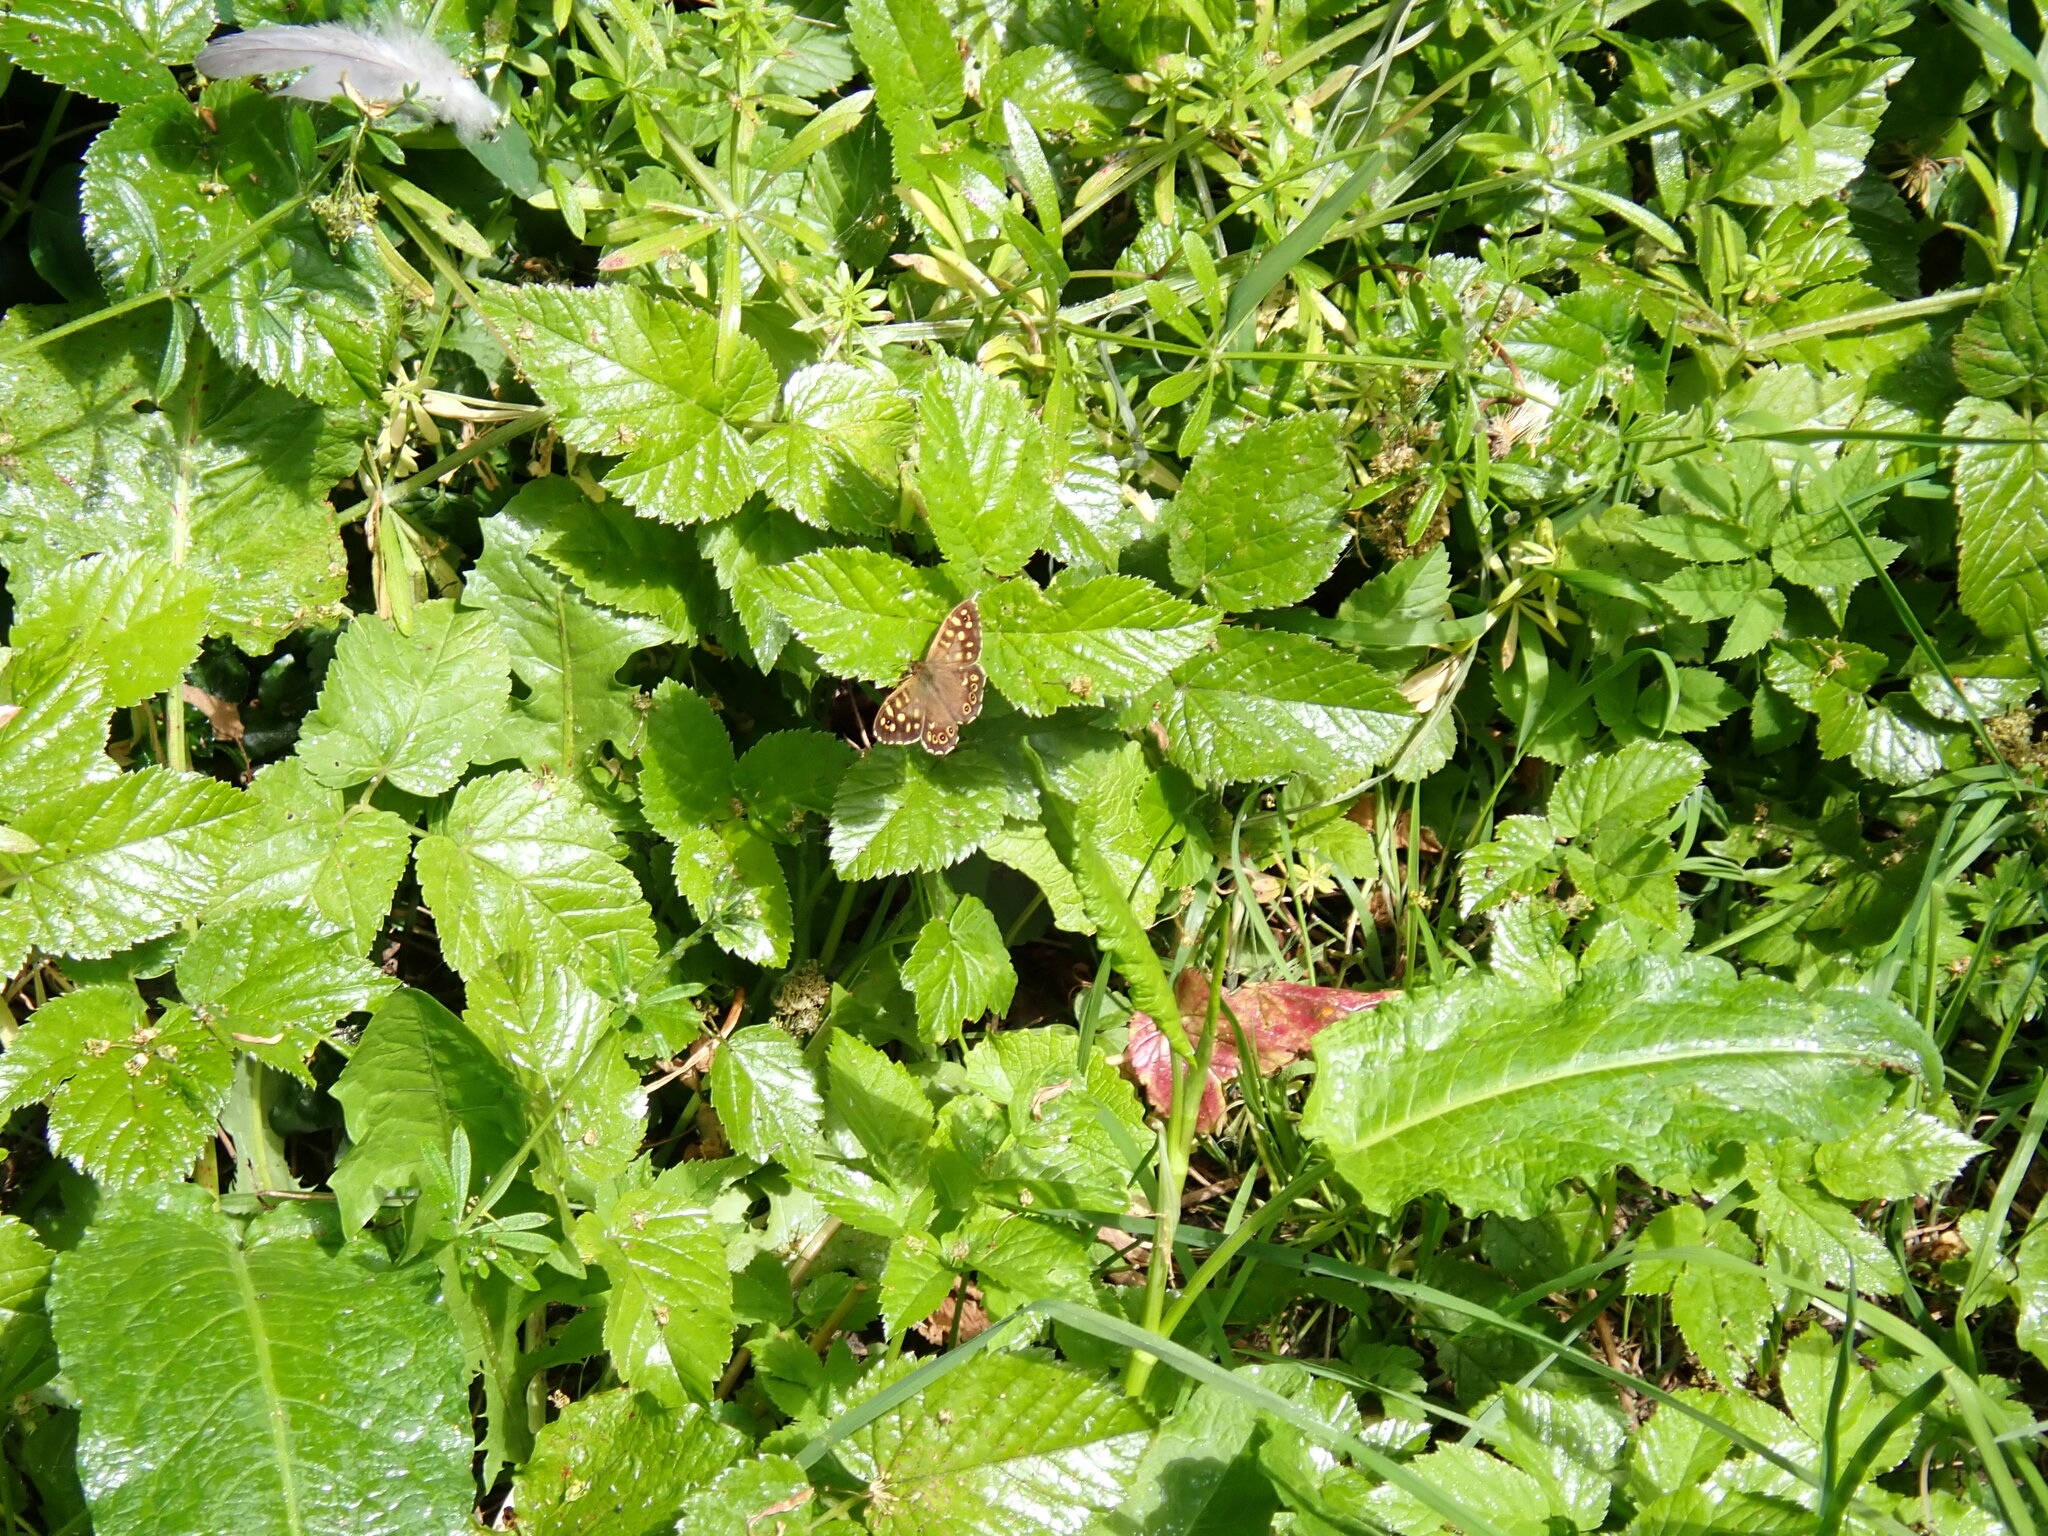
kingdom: Animalia
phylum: Arthropoda
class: Insecta
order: Lepidoptera
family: Nymphalidae
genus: Pararge
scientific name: Pararge aegeria
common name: Speckled wood
